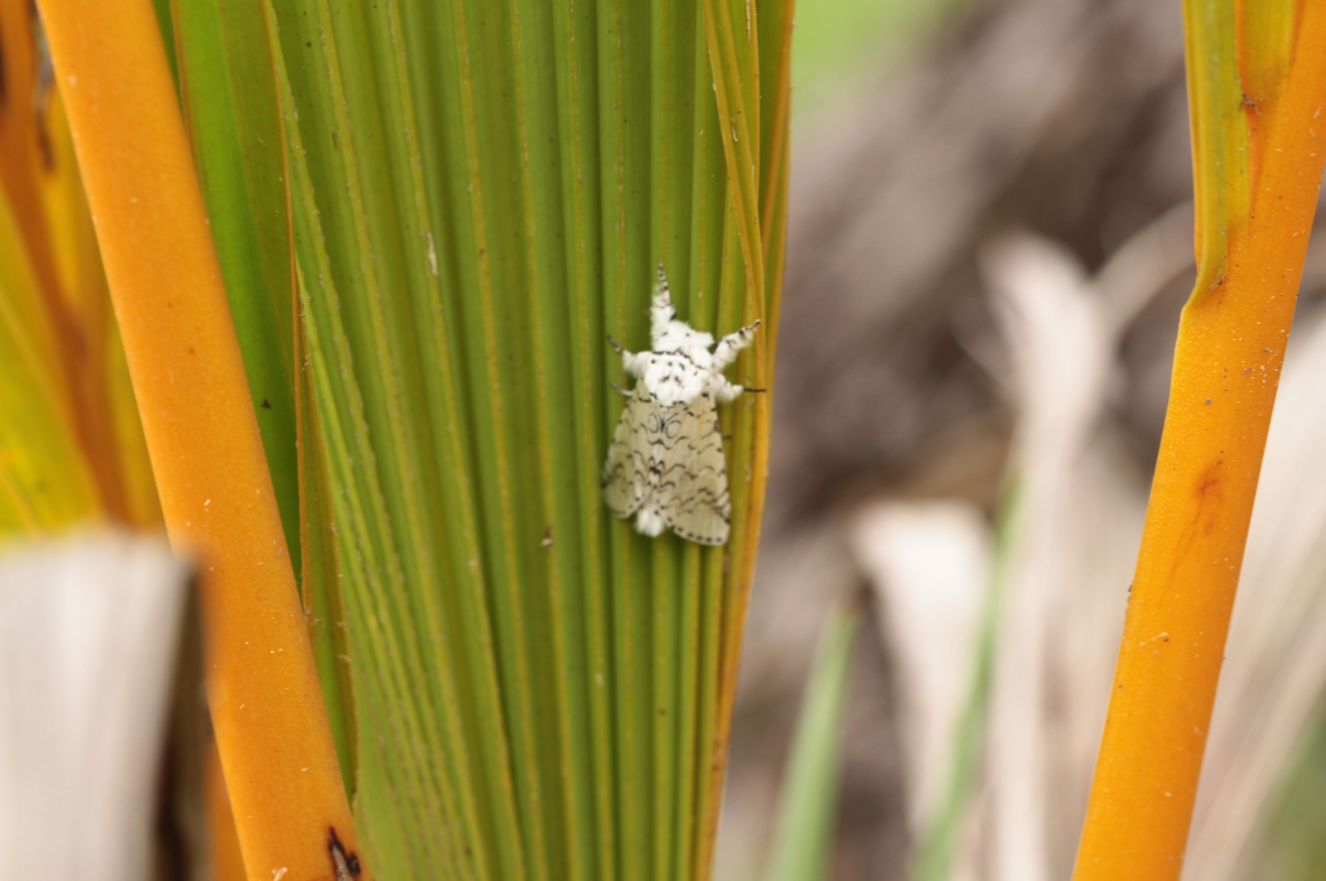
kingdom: Animalia
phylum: Arthropoda
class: Insecta
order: Lepidoptera
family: Notodontidae
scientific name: Notodontidae
